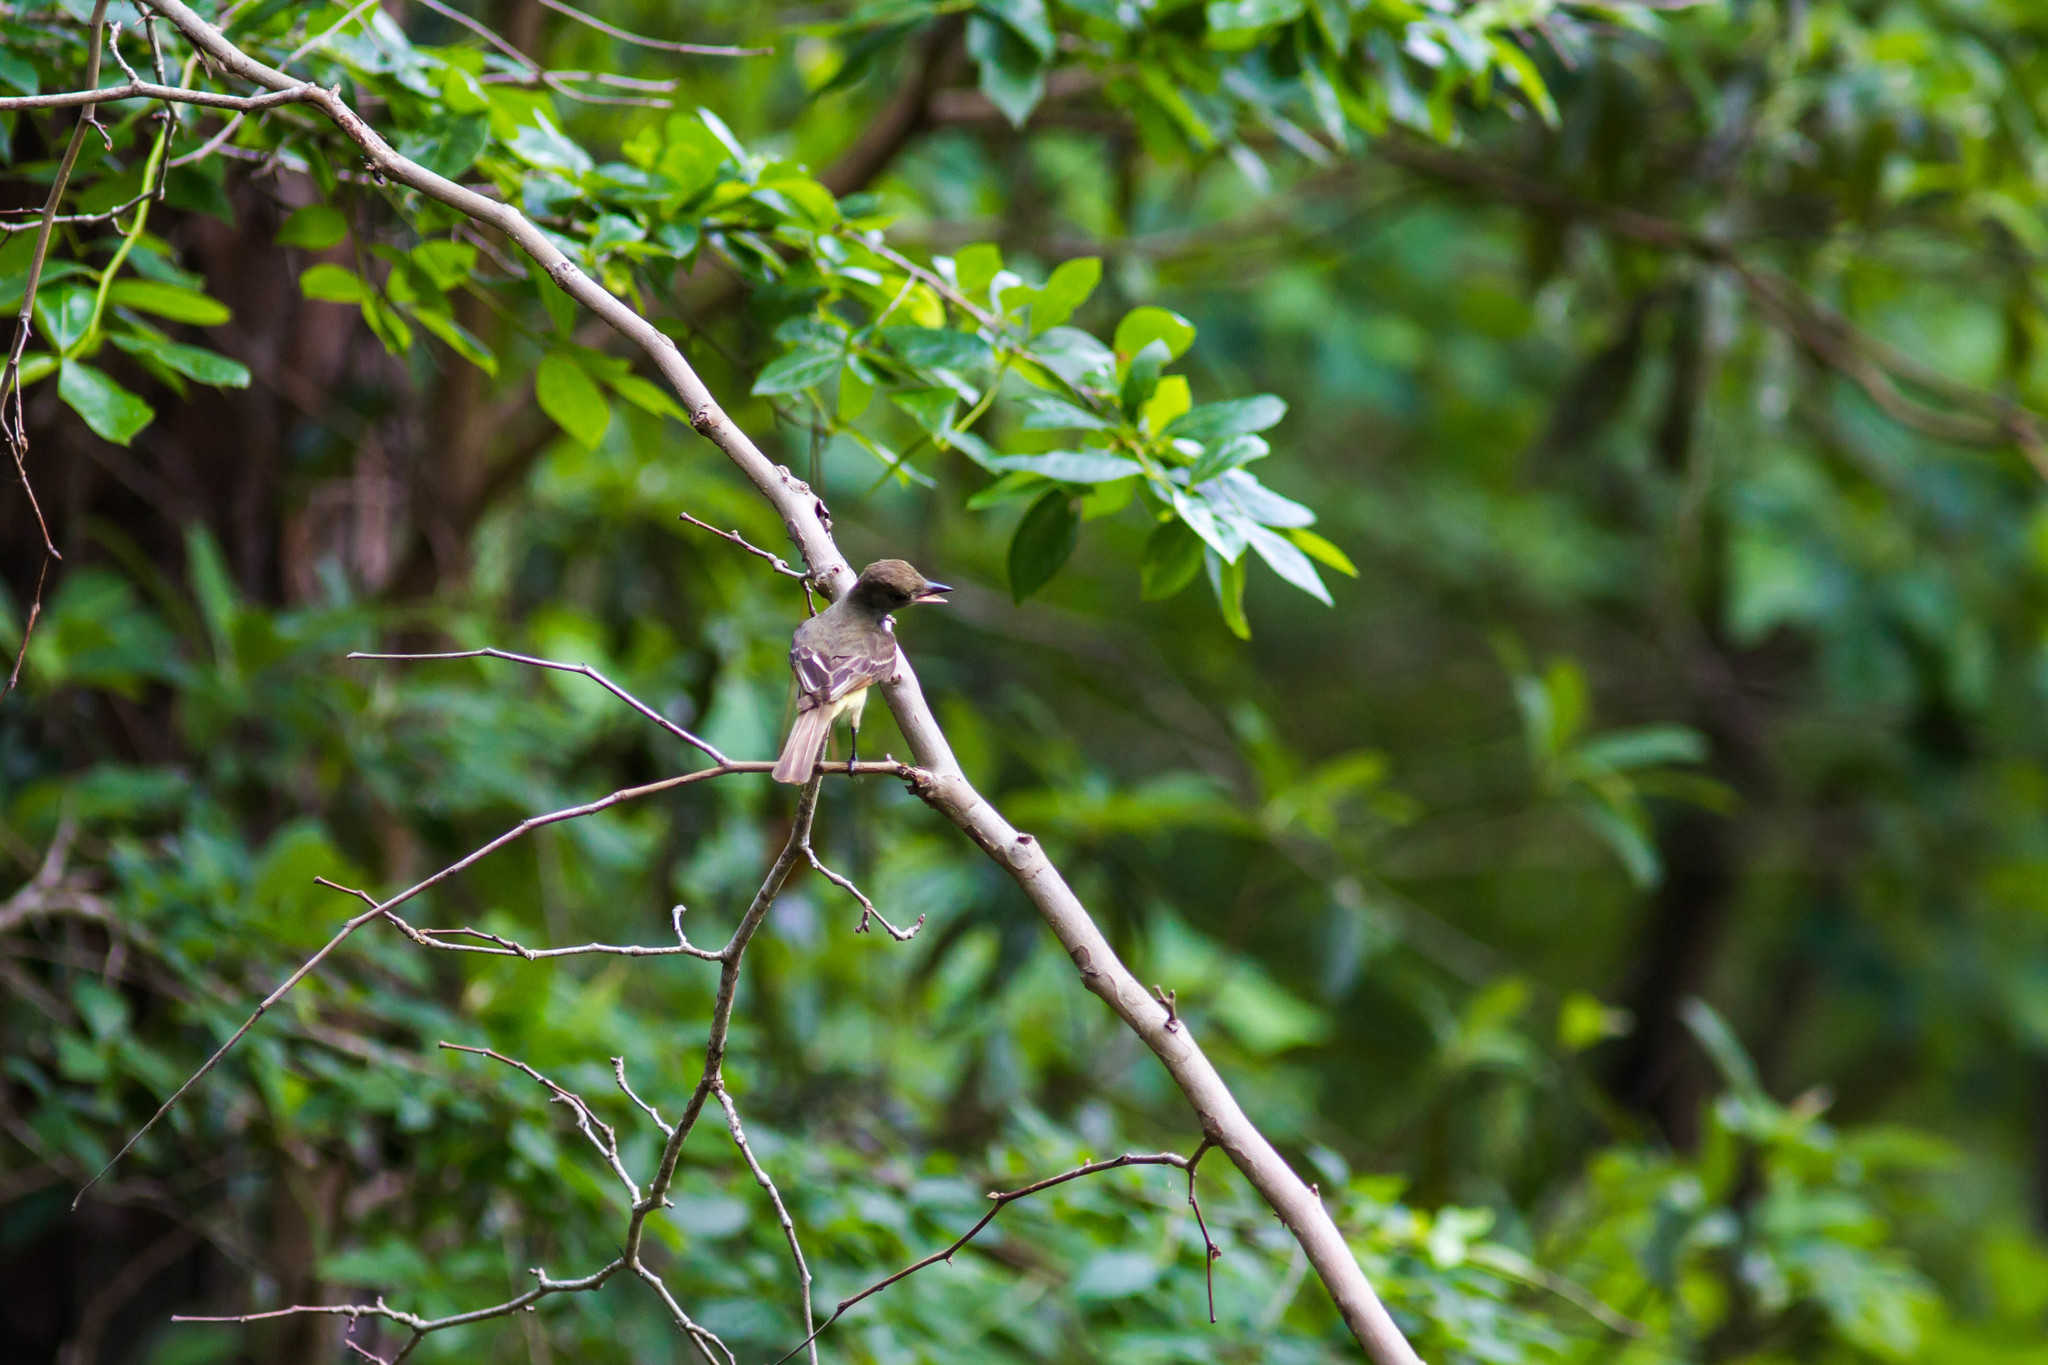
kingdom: Animalia
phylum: Chordata
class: Aves
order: Passeriformes
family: Tyrannidae
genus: Myiarchus
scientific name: Myiarchus crinitus
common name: Great crested flycatcher
